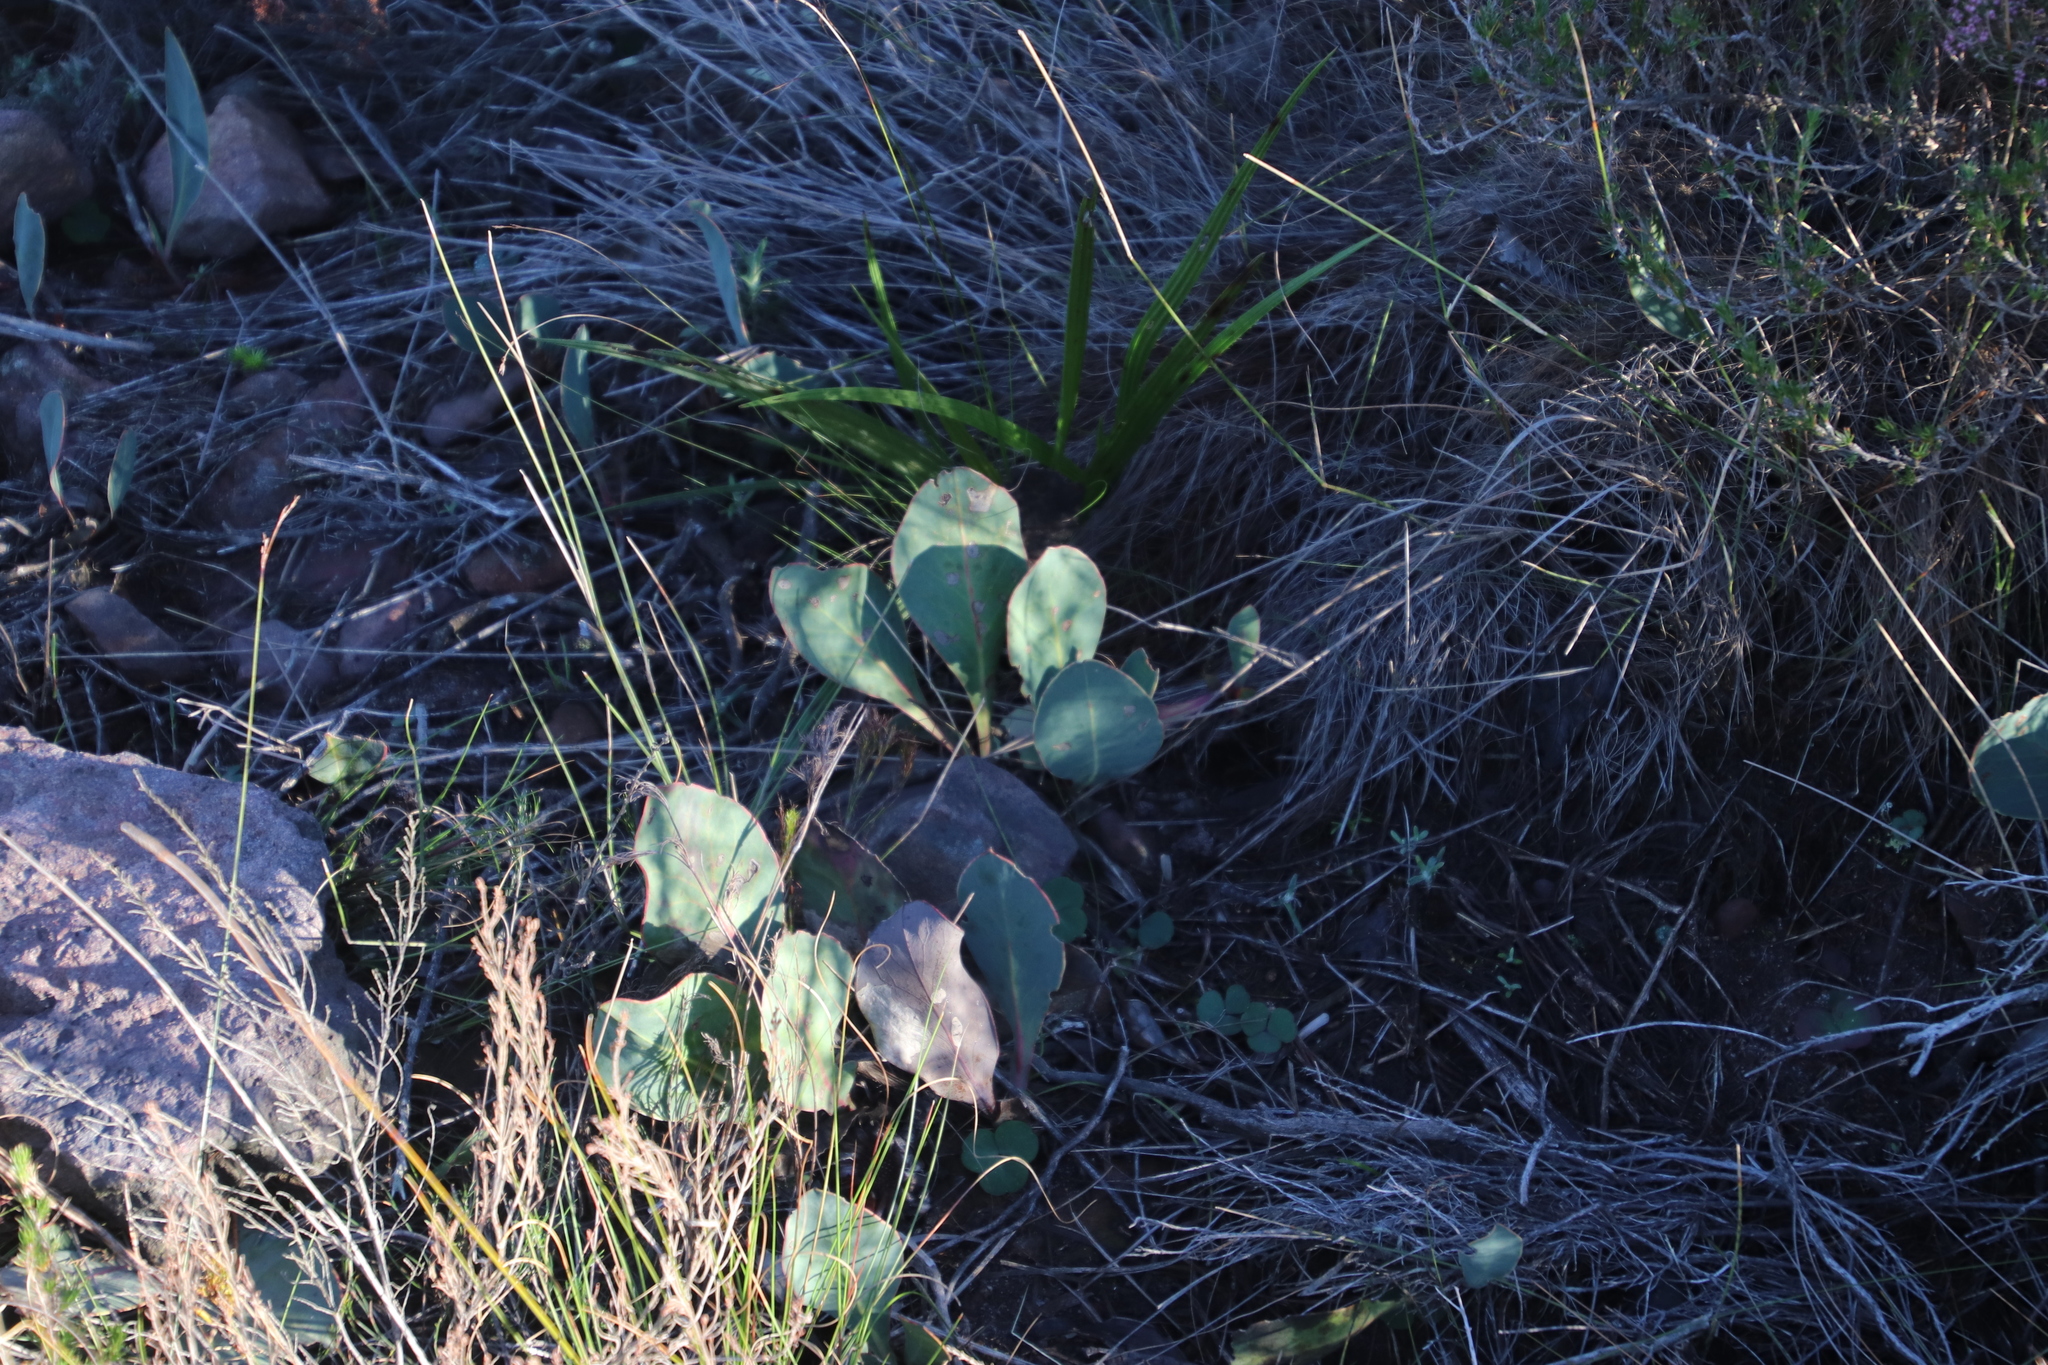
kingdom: Plantae
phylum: Tracheophyta
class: Magnoliopsida
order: Proteales
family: Proteaceae
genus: Protea
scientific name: Protea acaulos
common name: Common ground sugarbush
